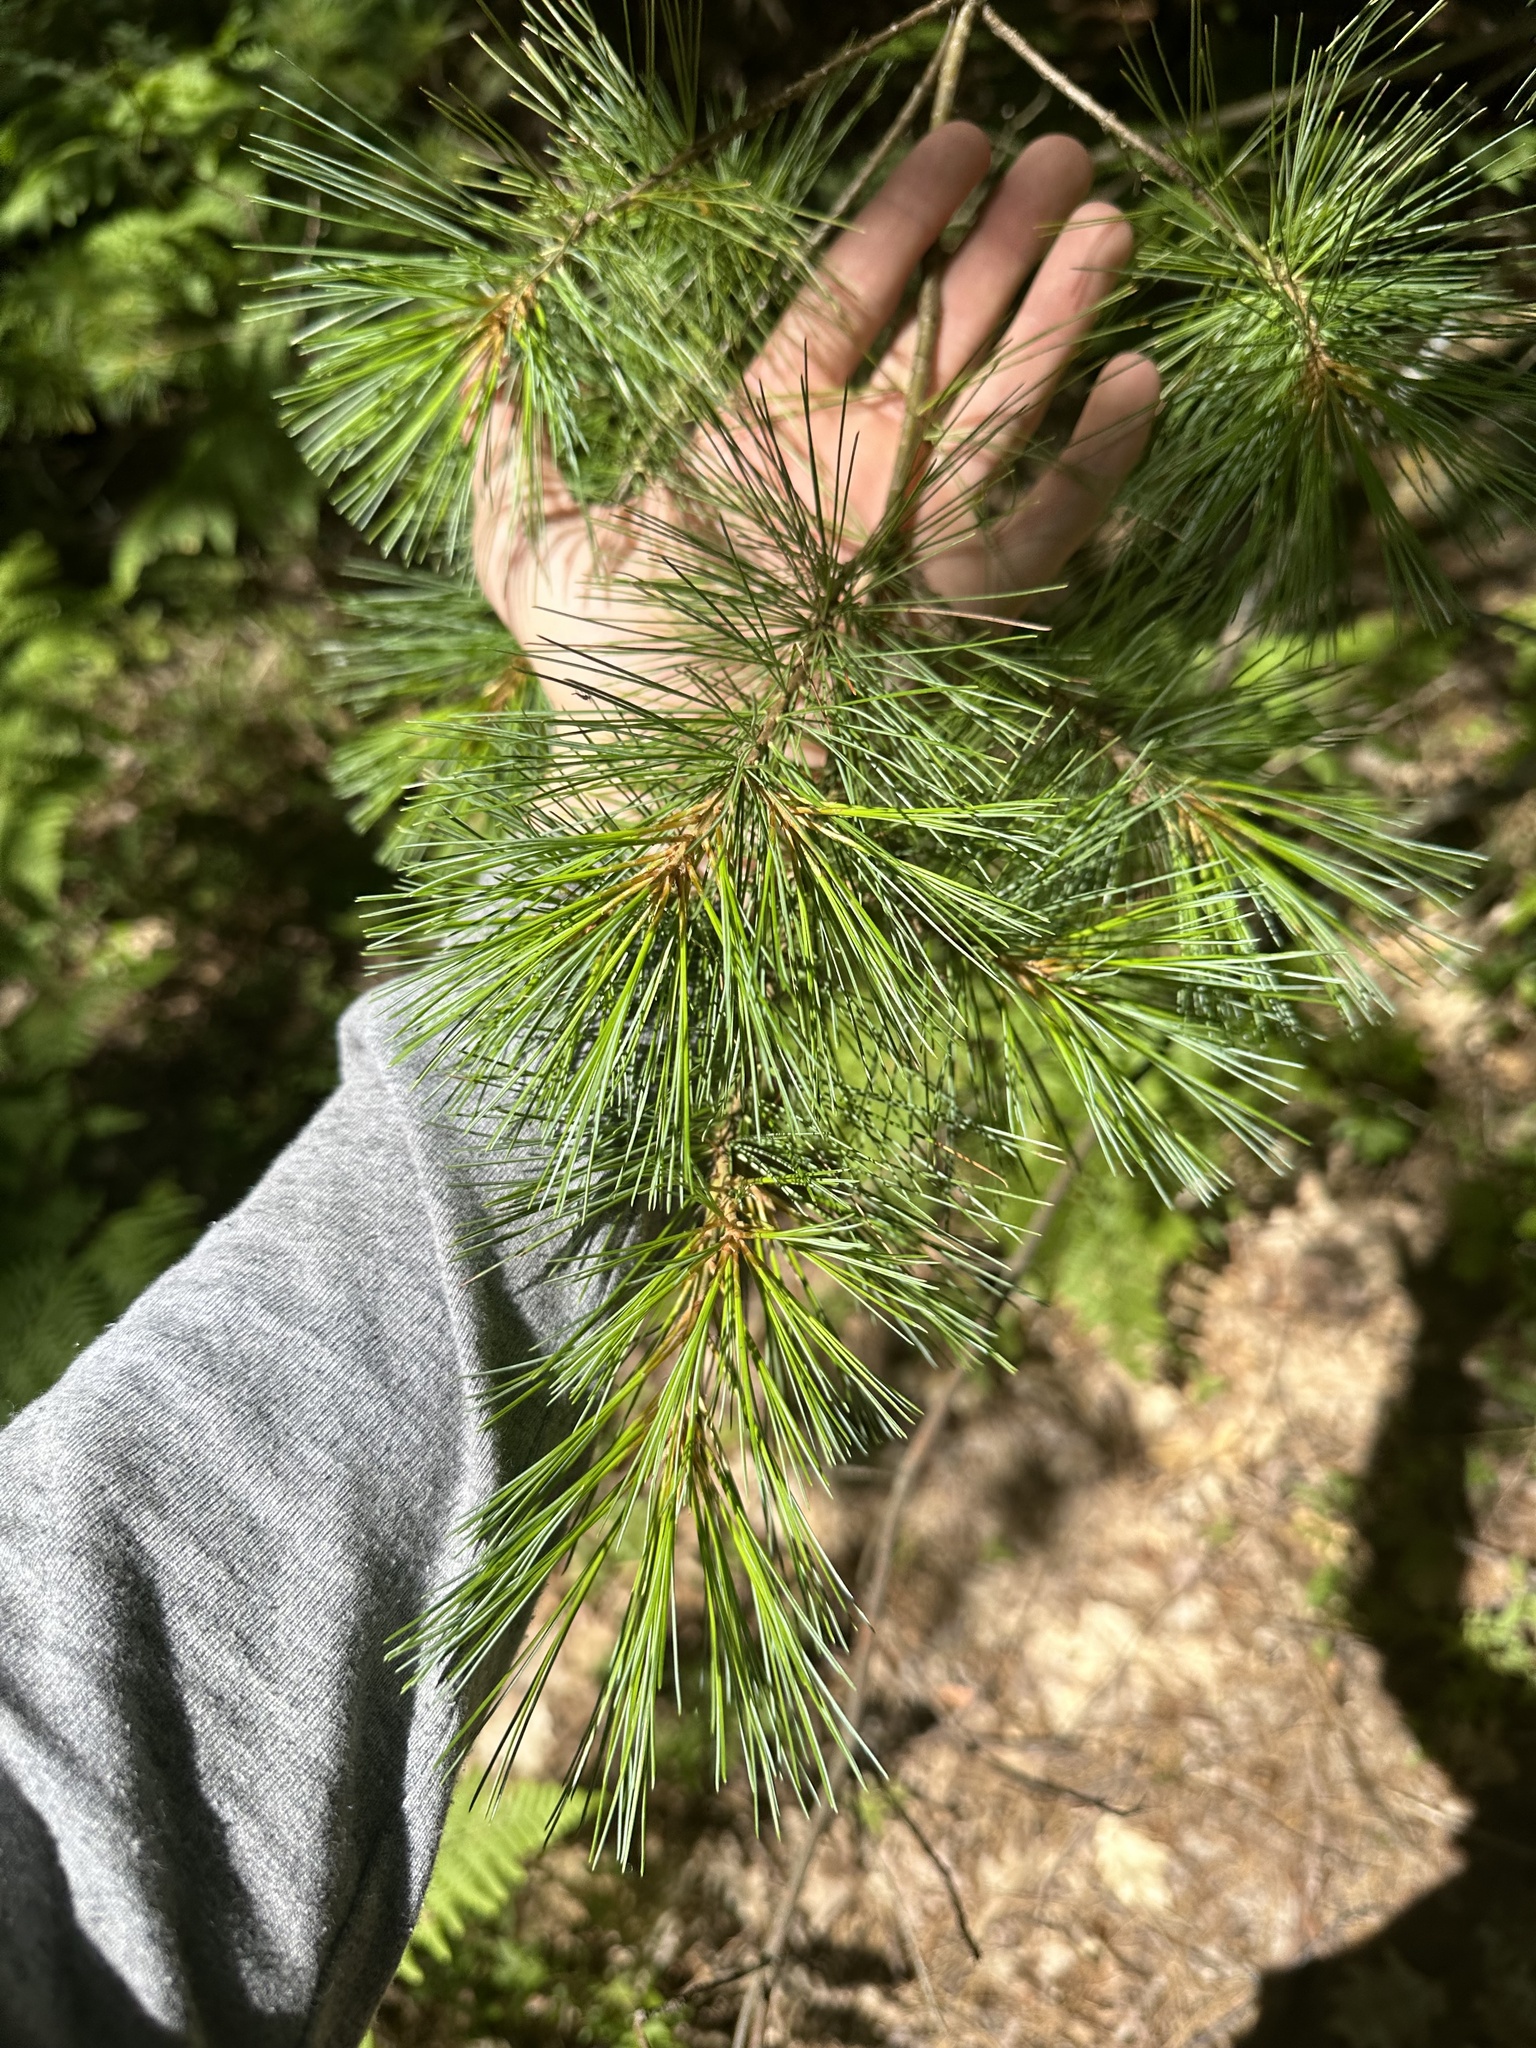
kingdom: Plantae
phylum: Tracheophyta
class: Pinopsida
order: Pinales
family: Pinaceae
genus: Pinus
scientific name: Pinus strobus
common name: Weymouth pine
